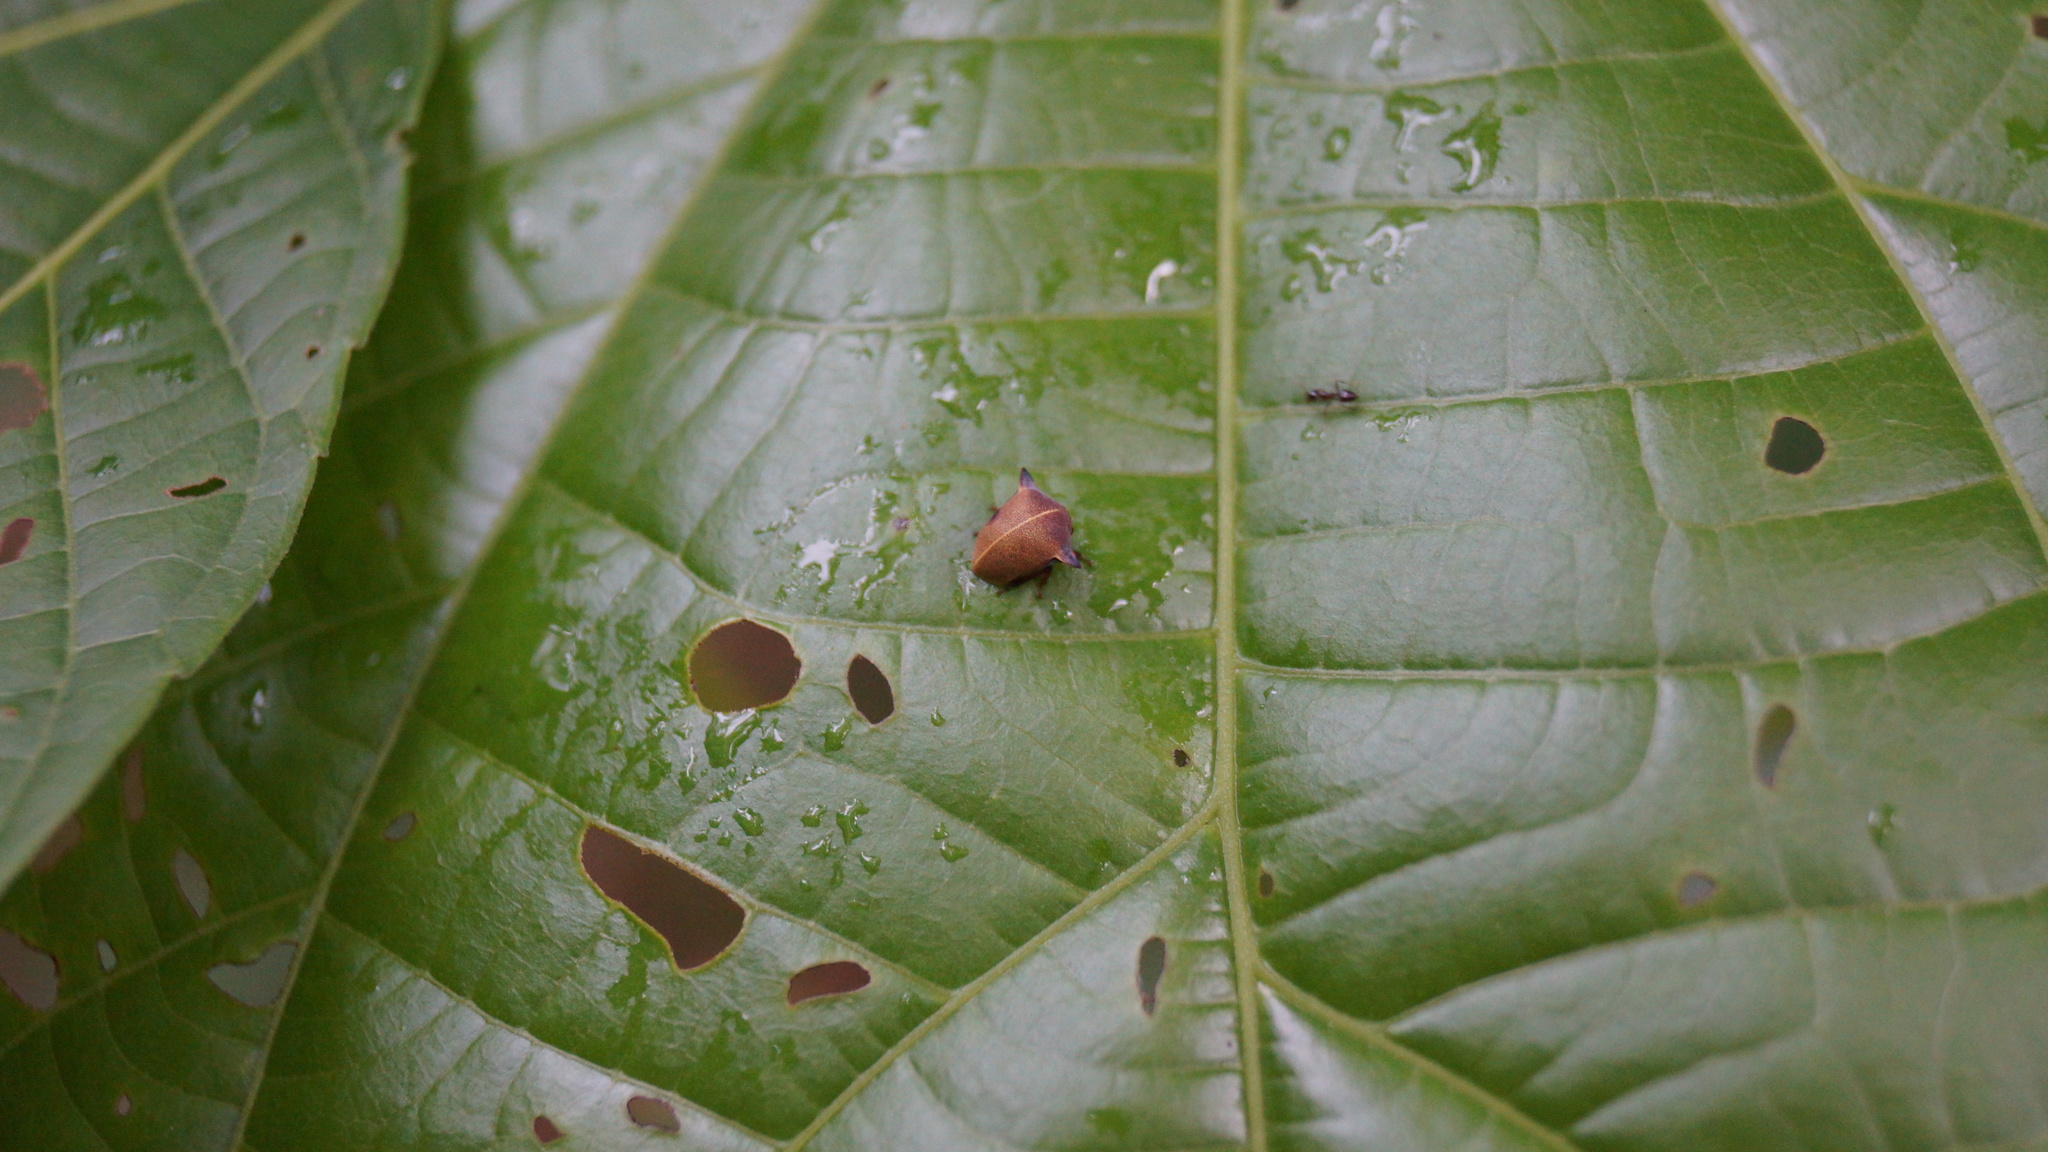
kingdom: Animalia
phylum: Arthropoda
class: Insecta
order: Hemiptera
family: Membracidae
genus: Todea
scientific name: Todea cimicoides
